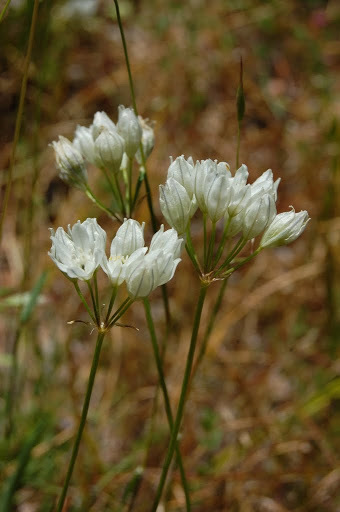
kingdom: Plantae
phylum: Tracheophyta
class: Liliopsida
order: Asparagales
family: Asparagaceae
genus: Triteleia
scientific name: Triteleia hyacinthina
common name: White brodiaea
